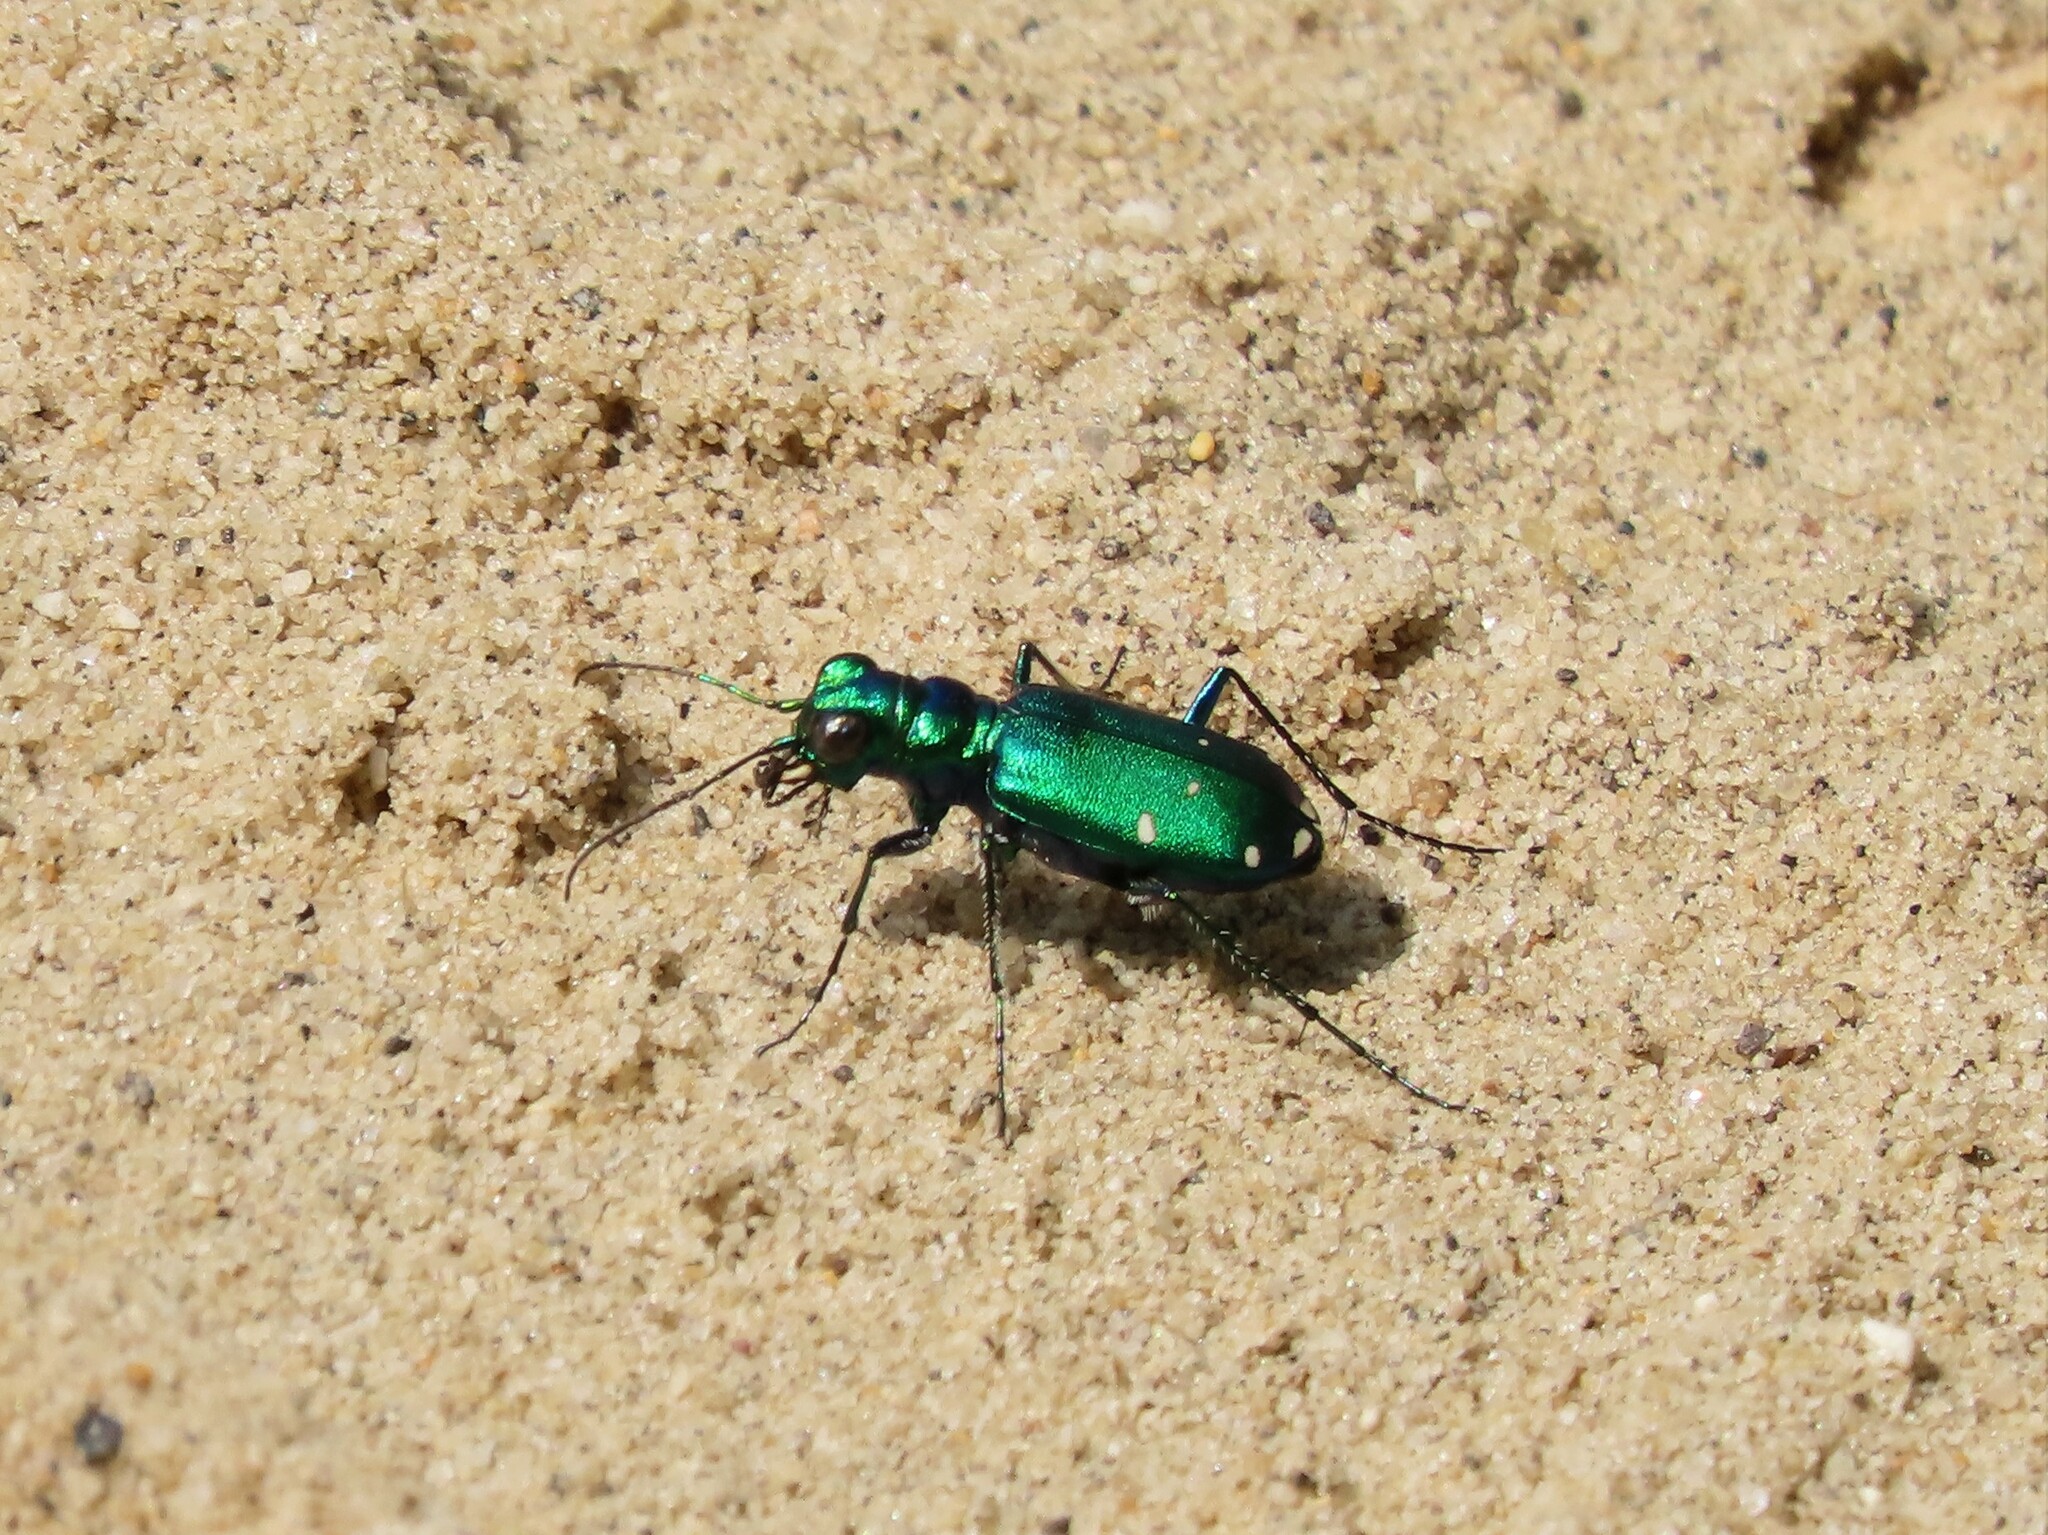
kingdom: Animalia
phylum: Arthropoda
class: Insecta
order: Coleoptera
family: Carabidae
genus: Cicindela
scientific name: Cicindela sexguttata
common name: Six-spotted tiger beetle
